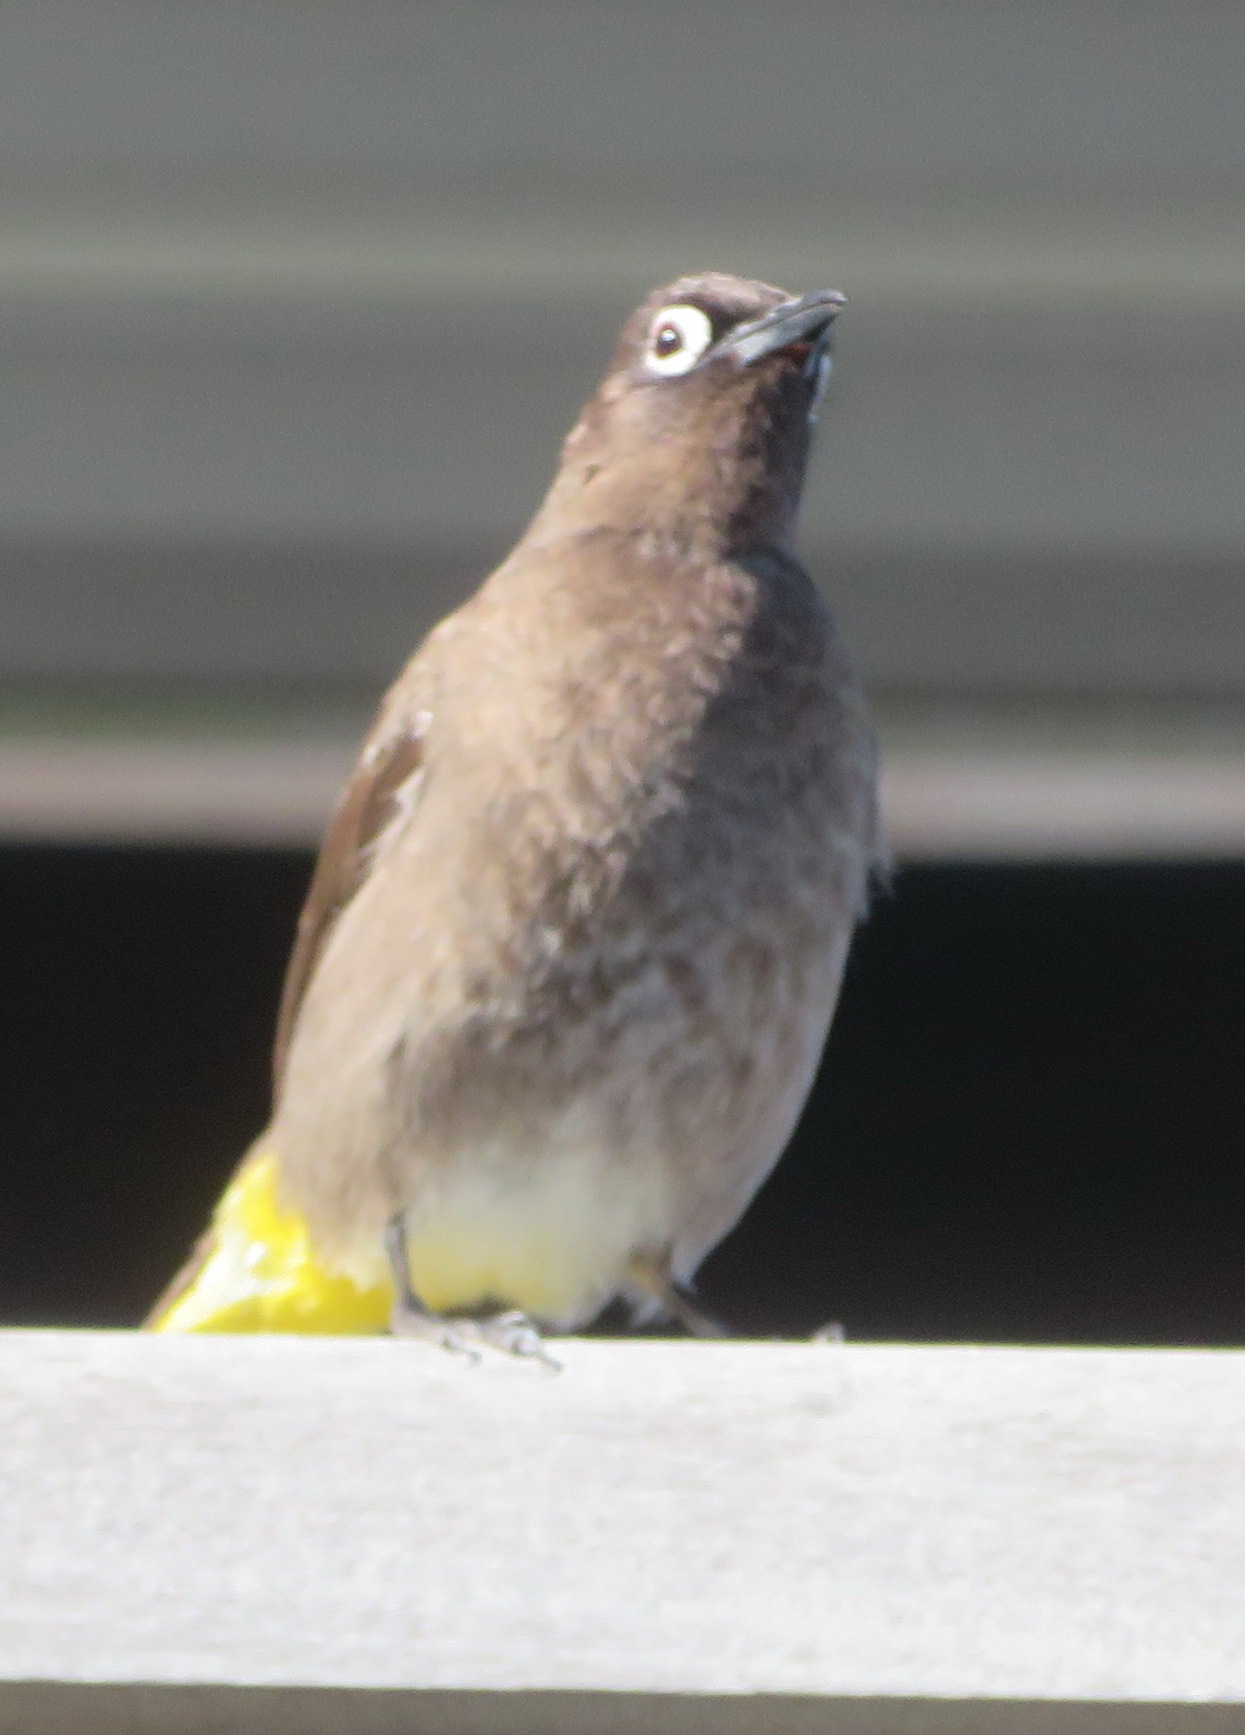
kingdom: Animalia
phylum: Chordata
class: Aves
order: Passeriformes
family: Pycnonotidae
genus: Pycnonotus
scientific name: Pycnonotus capensis
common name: Cape bulbul
